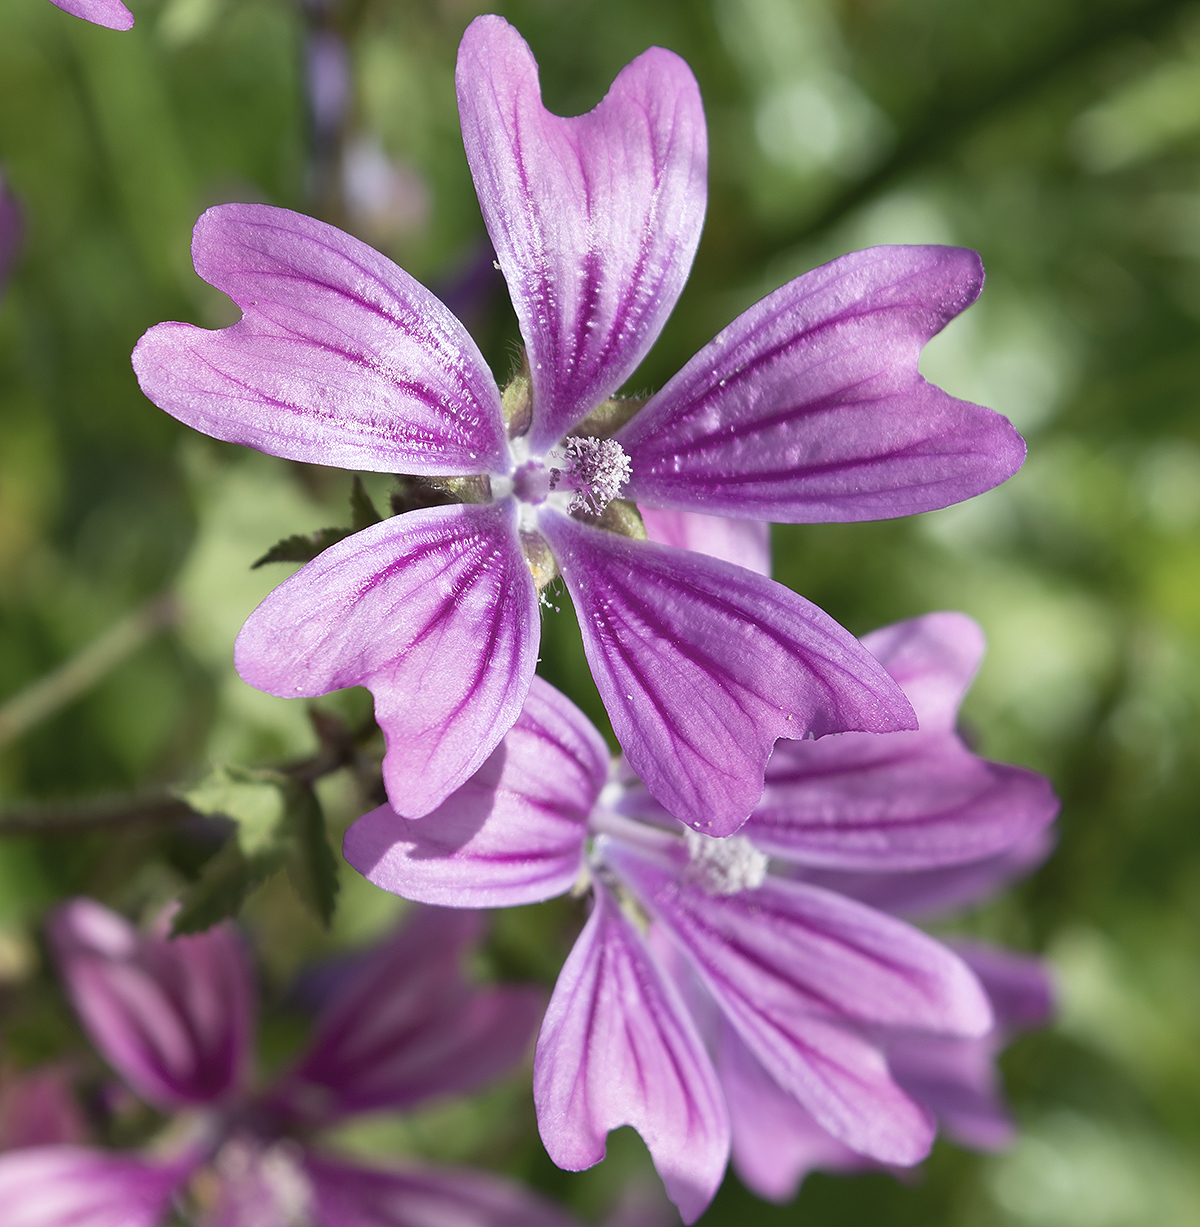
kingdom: Plantae
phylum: Tracheophyta
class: Magnoliopsida
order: Malvales
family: Malvaceae
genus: Malva
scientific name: Malva sylvestris
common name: Common mallow
